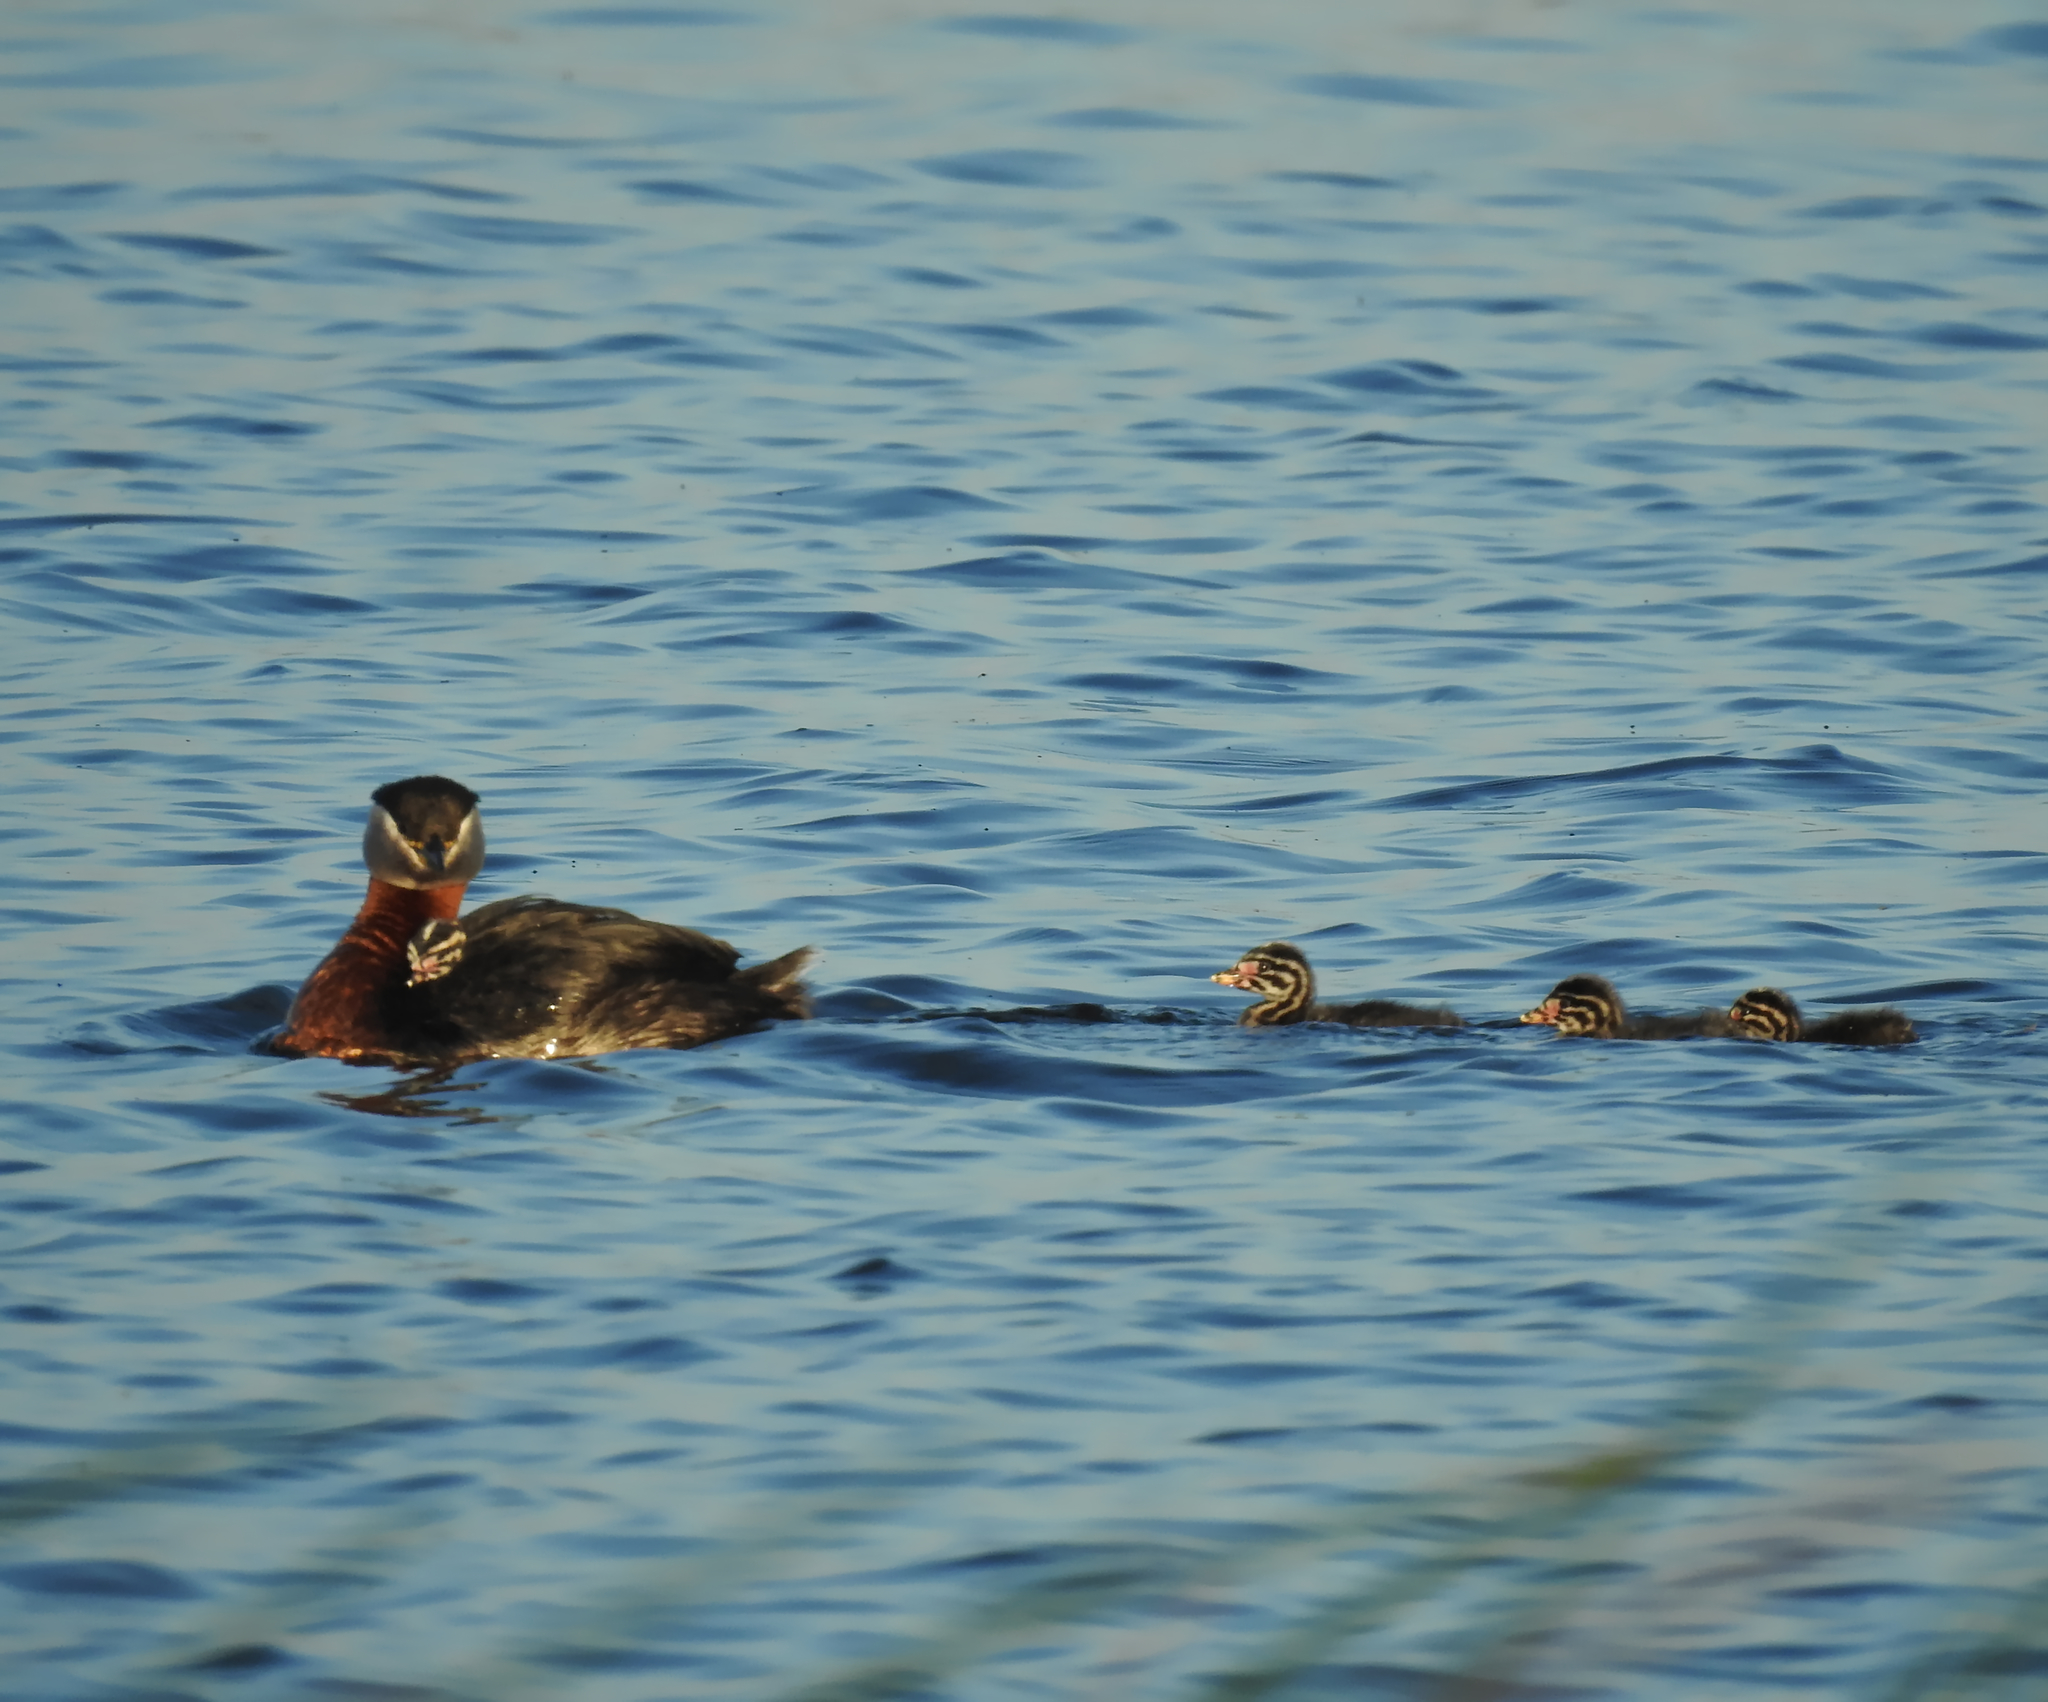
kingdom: Animalia
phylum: Chordata
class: Aves
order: Podicipediformes
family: Podicipedidae
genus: Podiceps
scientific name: Podiceps grisegena
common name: Red-necked grebe
